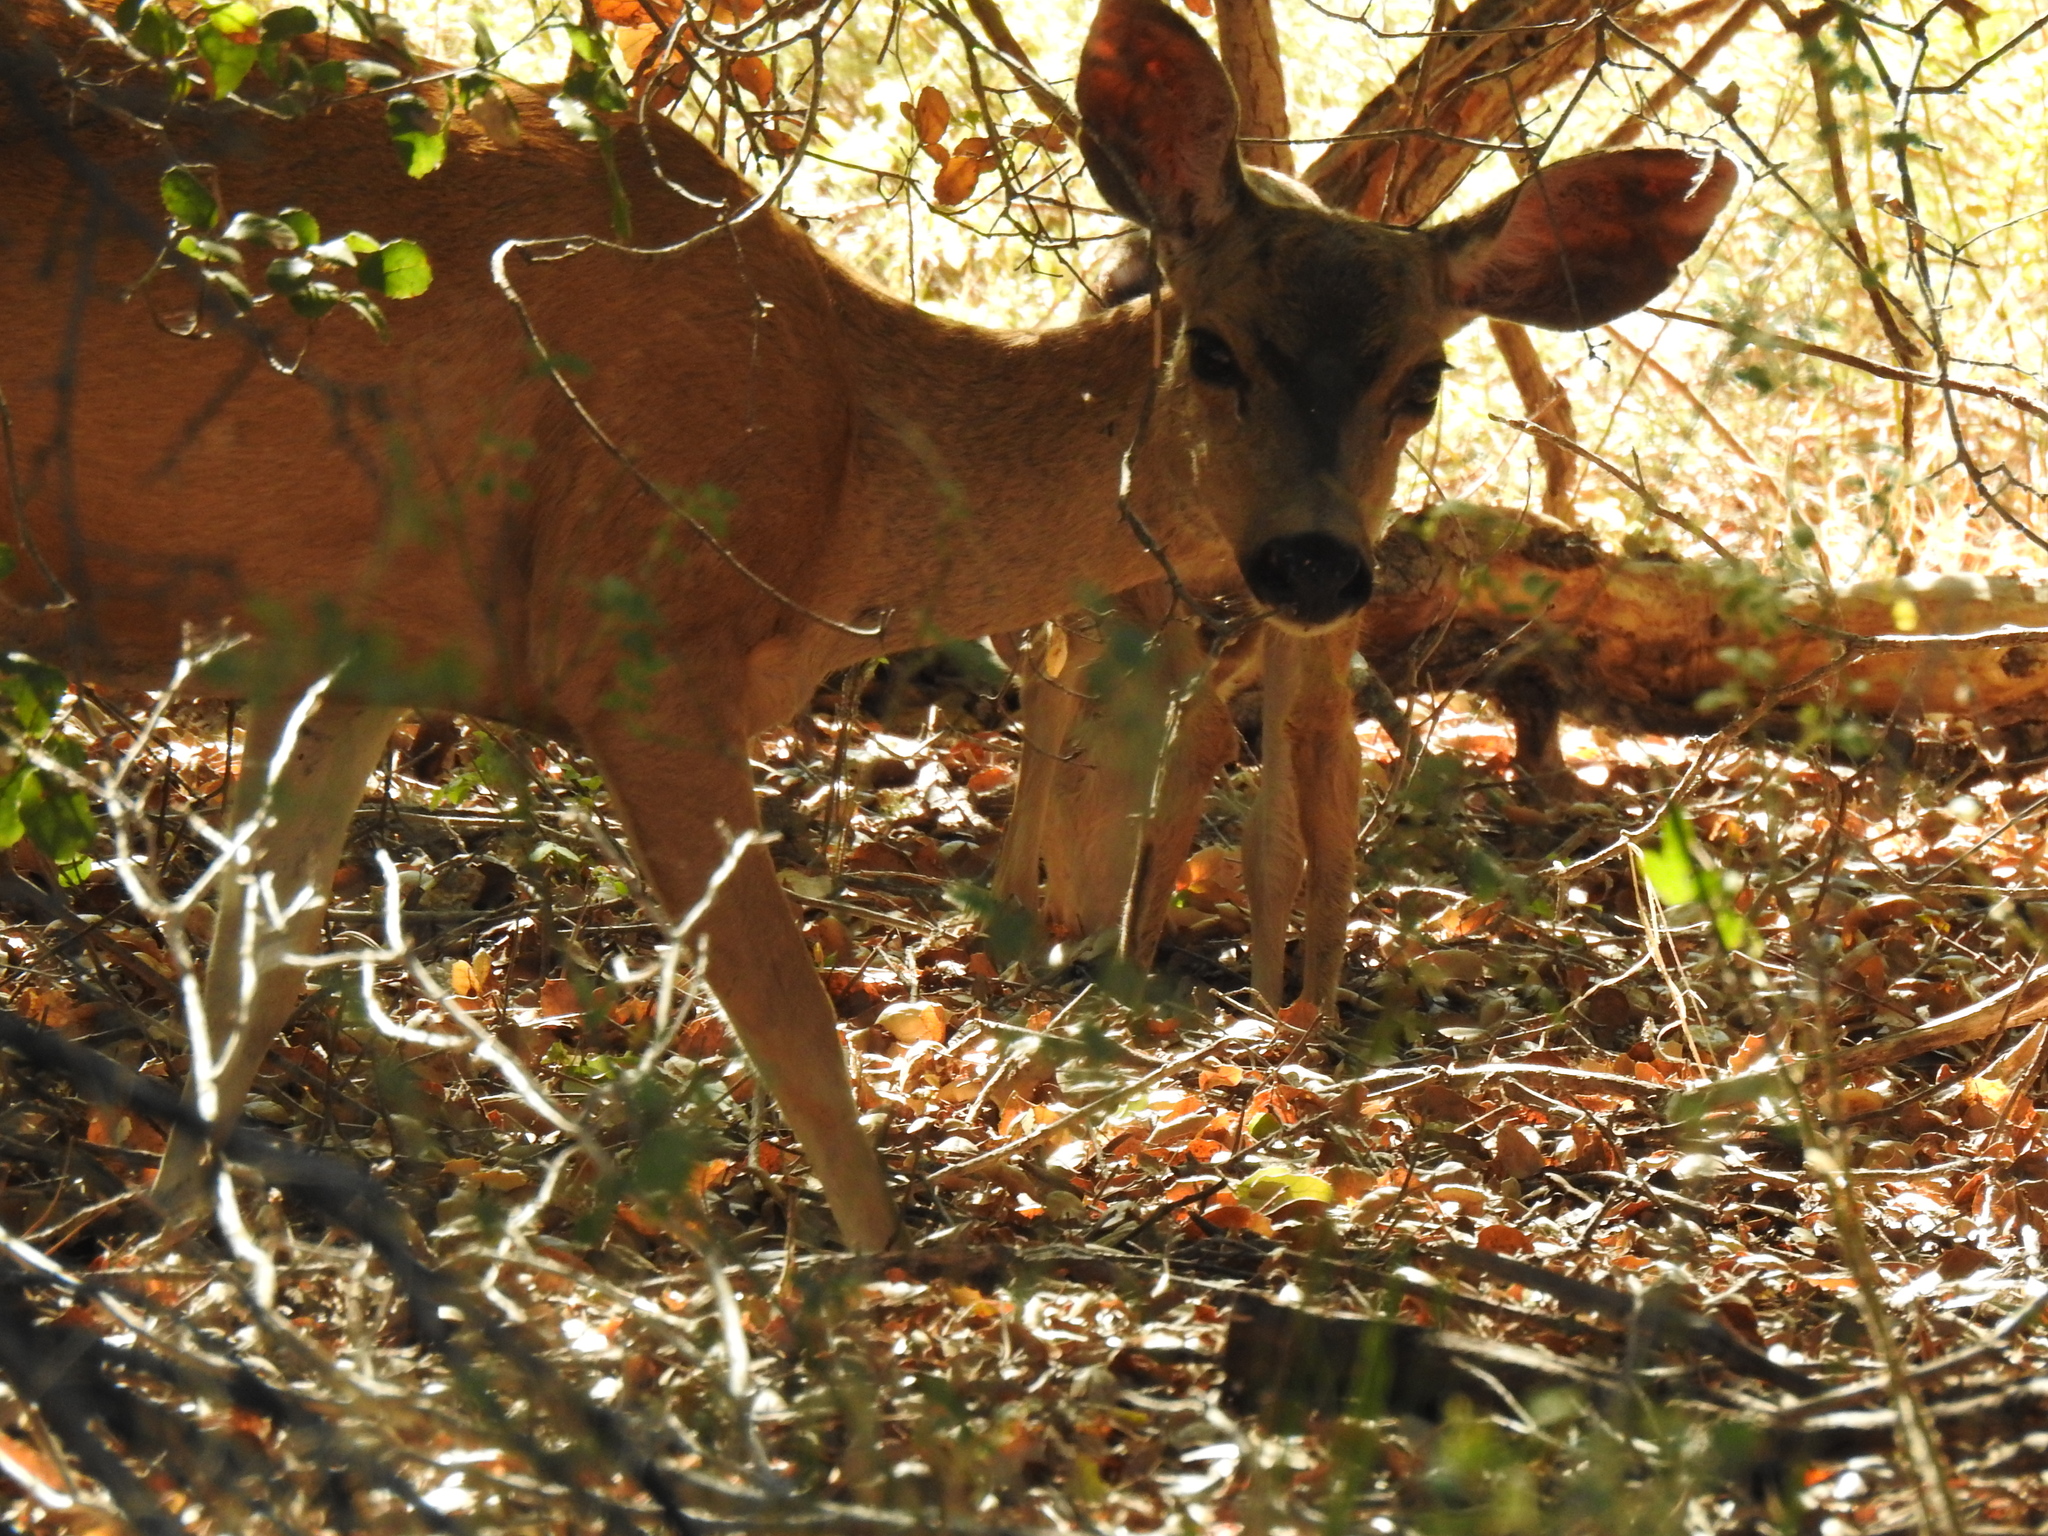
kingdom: Animalia
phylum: Chordata
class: Mammalia
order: Artiodactyla
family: Cervidae
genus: Odocoileus
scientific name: Odocoileus hemionus
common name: Mule deer
